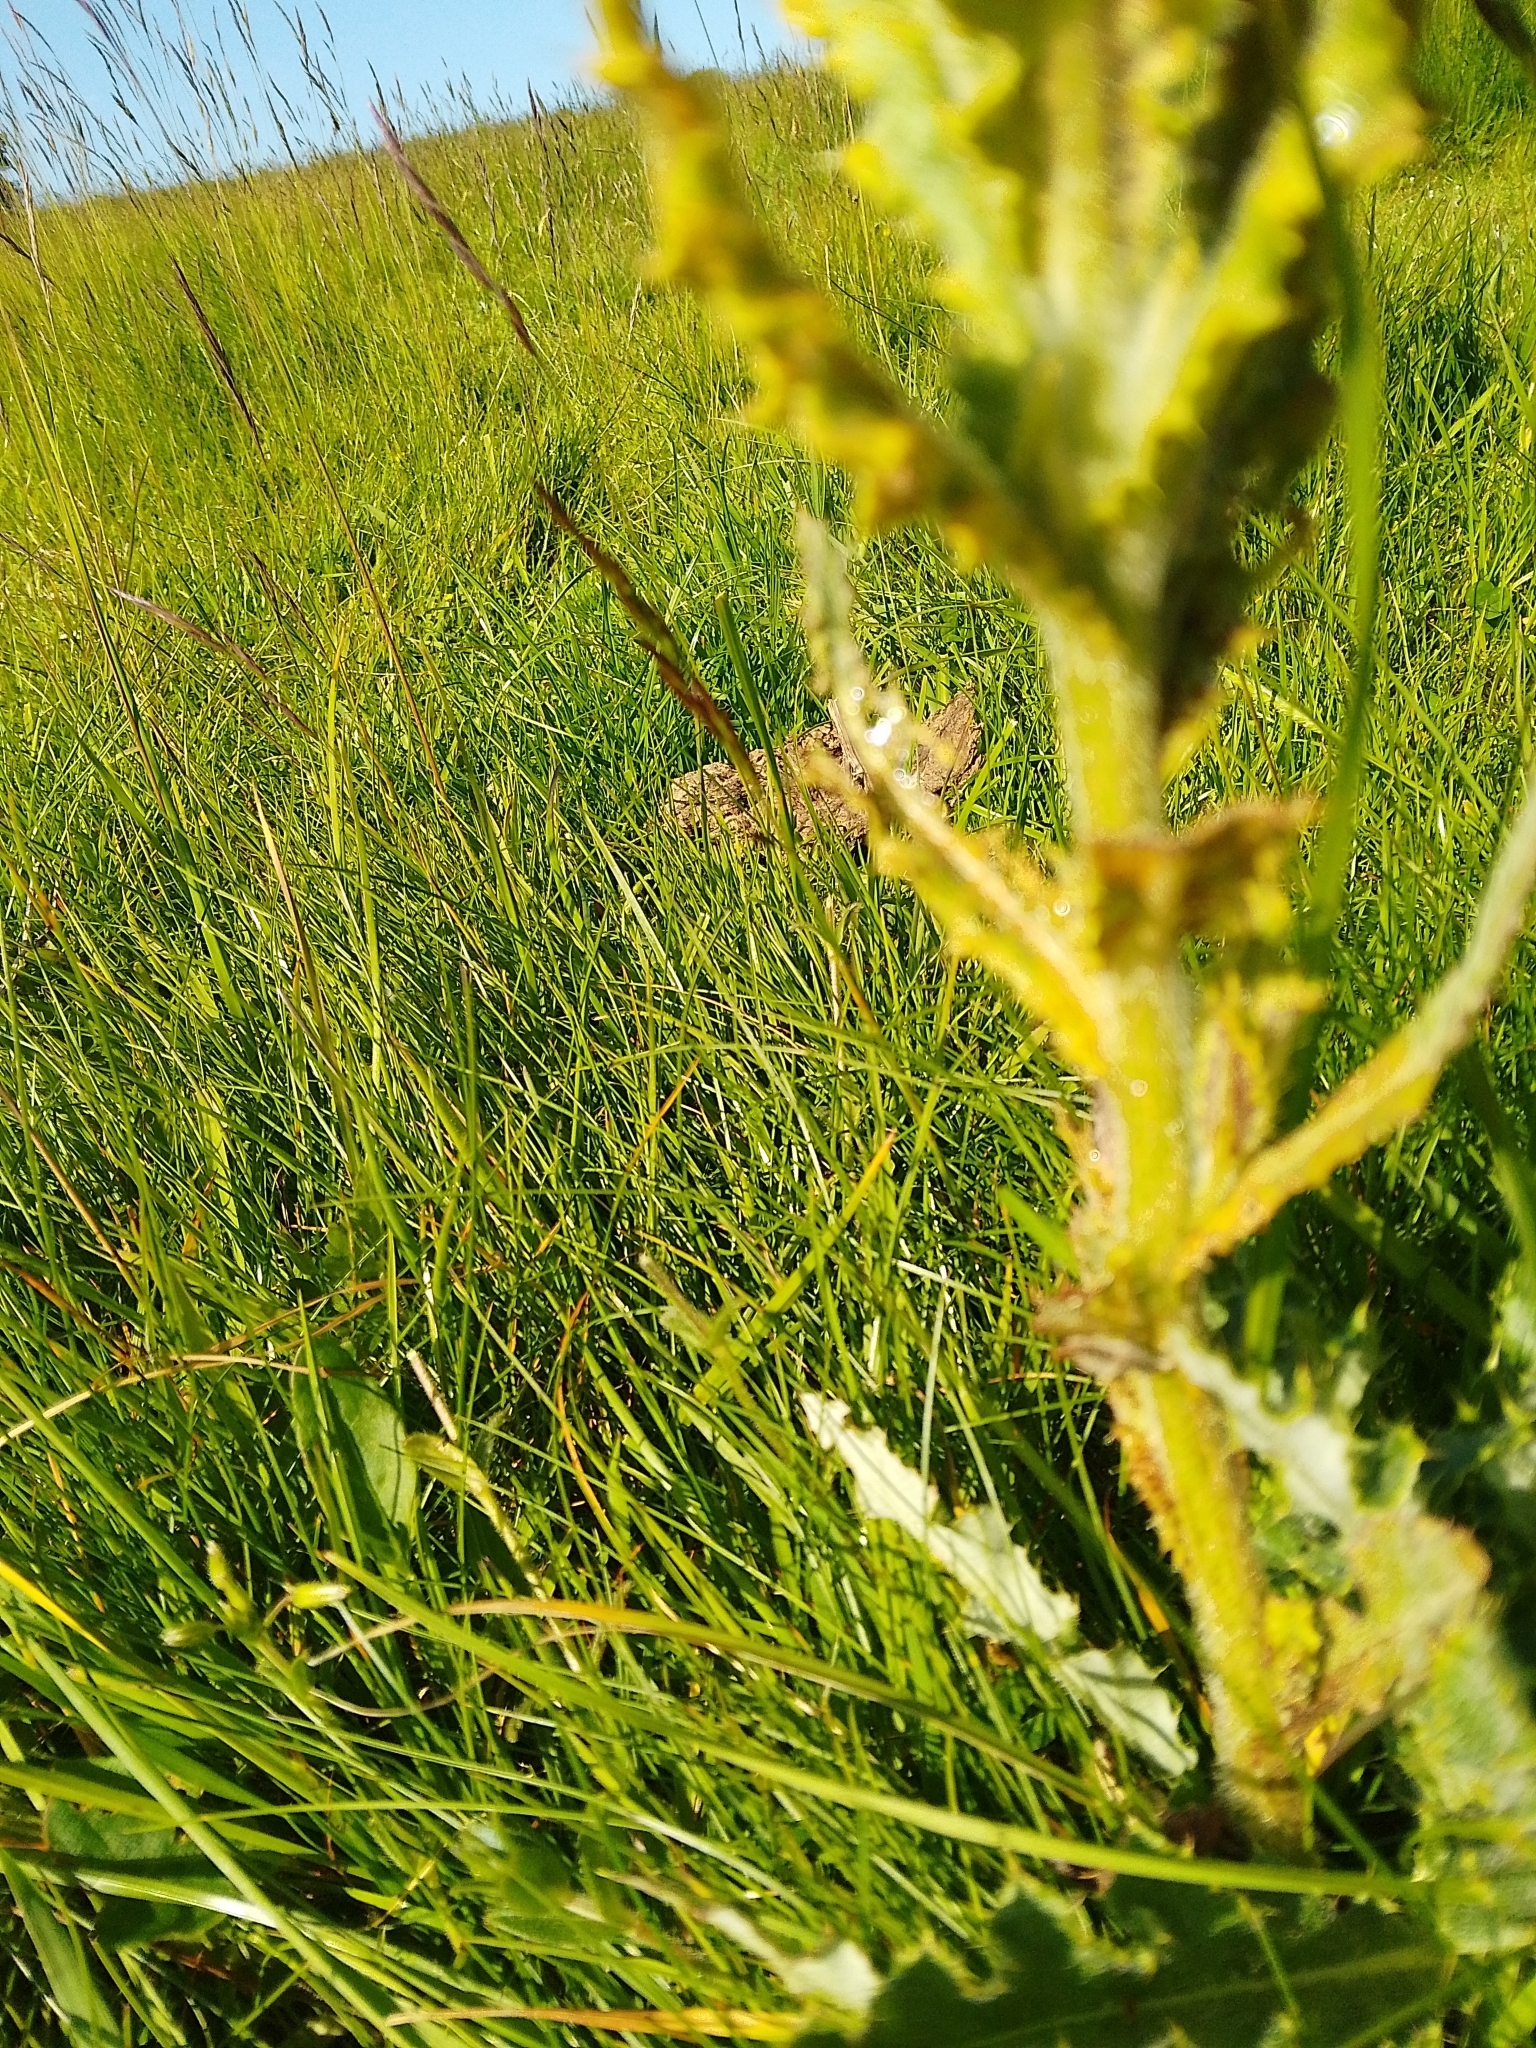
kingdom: Fungi
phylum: Basidiomycota
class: Pucciniomycetes
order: Pucciniales
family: Pucciniaceae
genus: Puccinia
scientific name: Puccinia suaveolens
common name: Thistle rust
